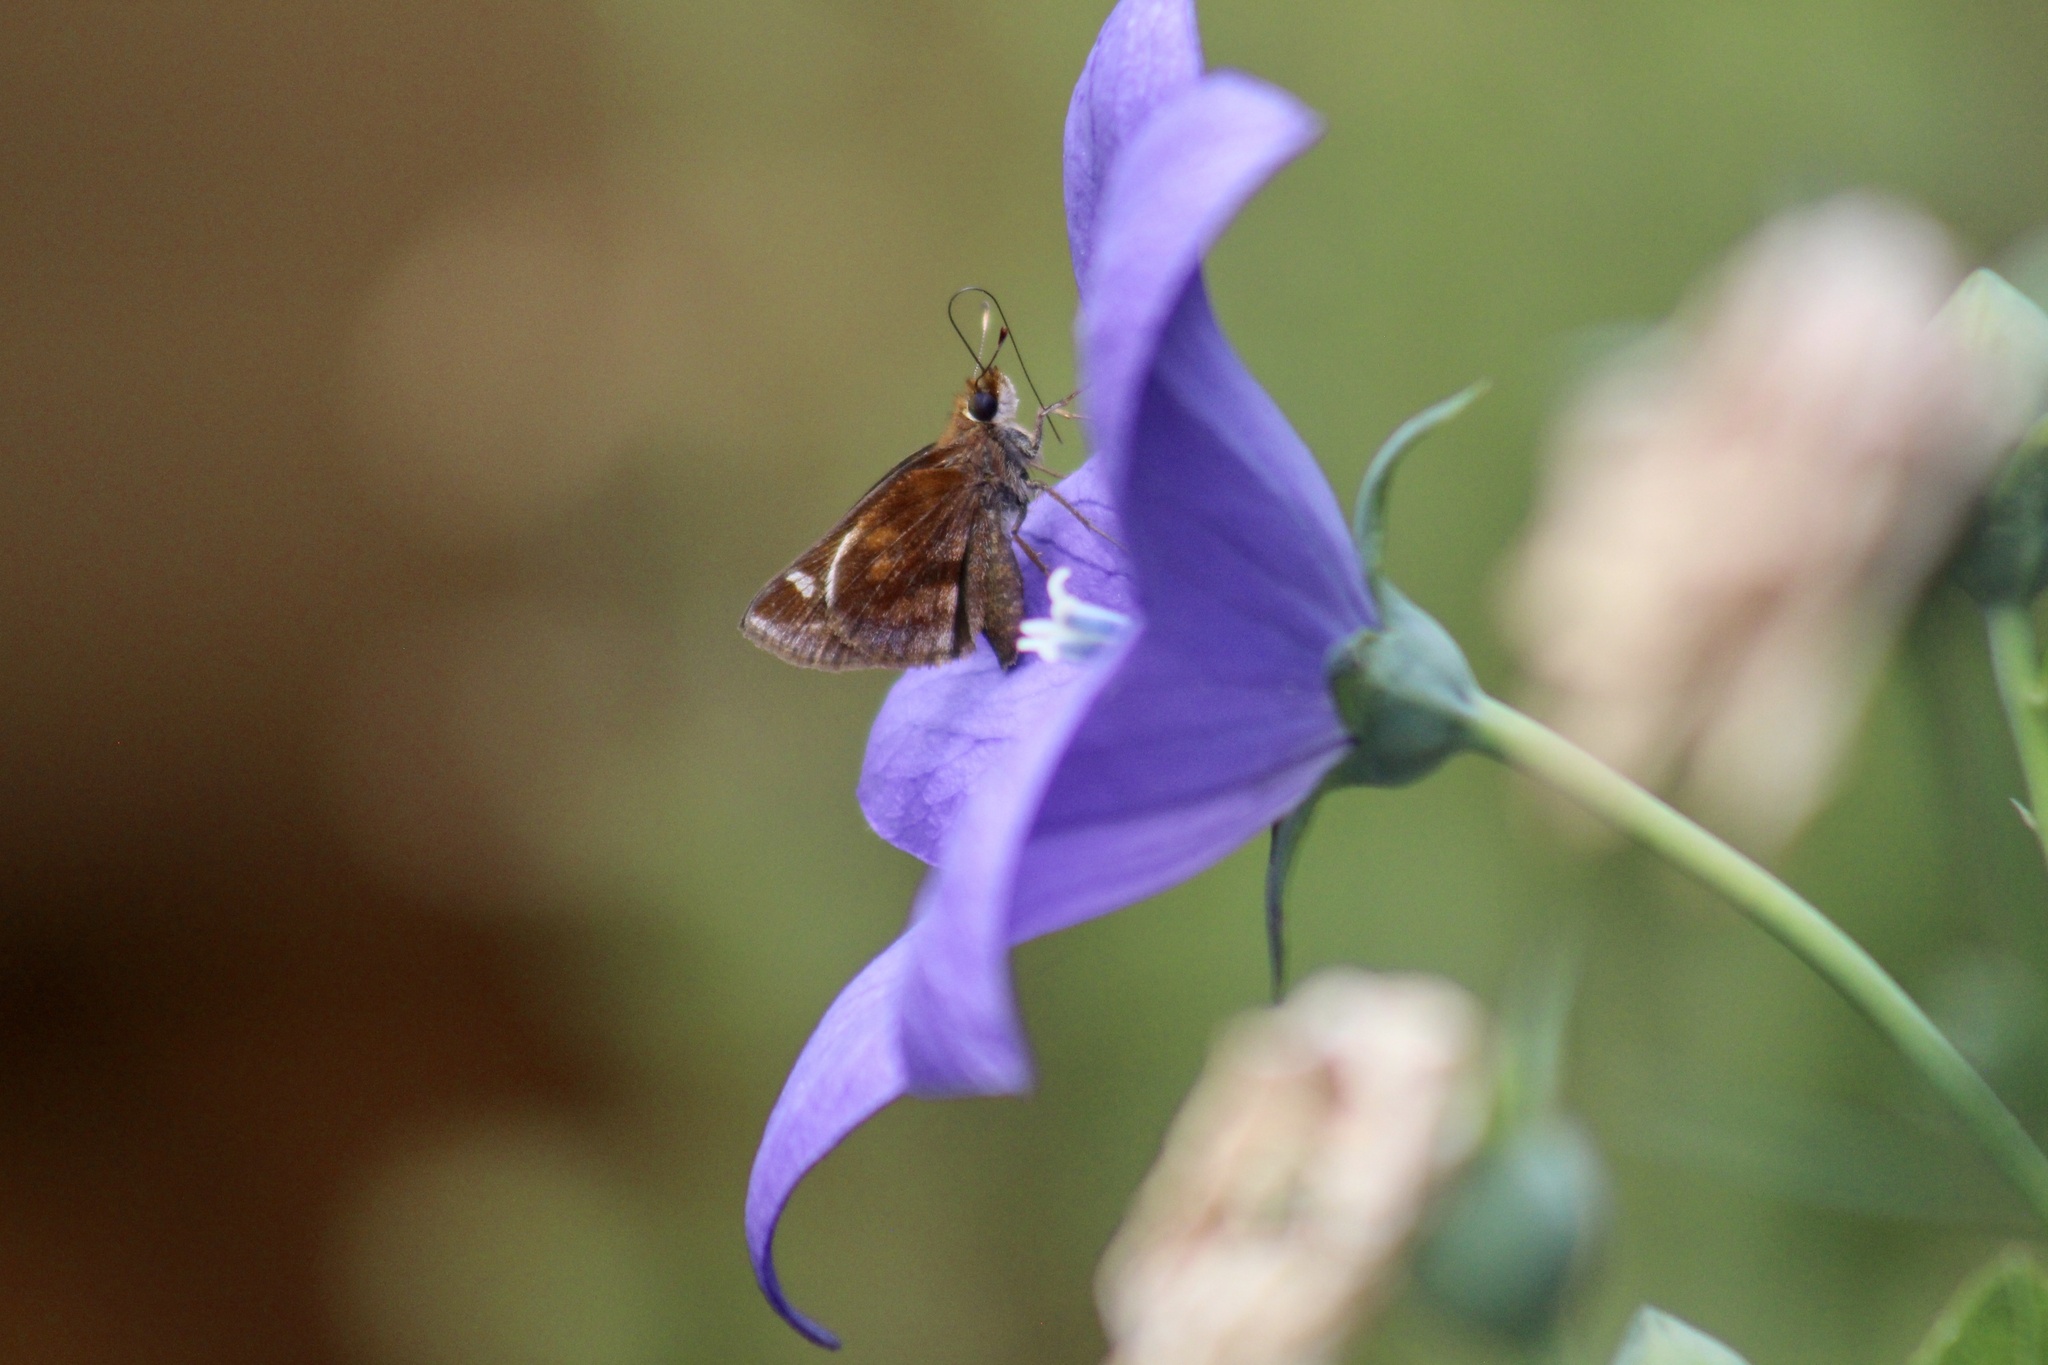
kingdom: Animalia
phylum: Arthropoda
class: Insecta
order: Lepidoptera
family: Hesperiidae
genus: Lon
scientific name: Lon zabulon
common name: Zabulon skipper
